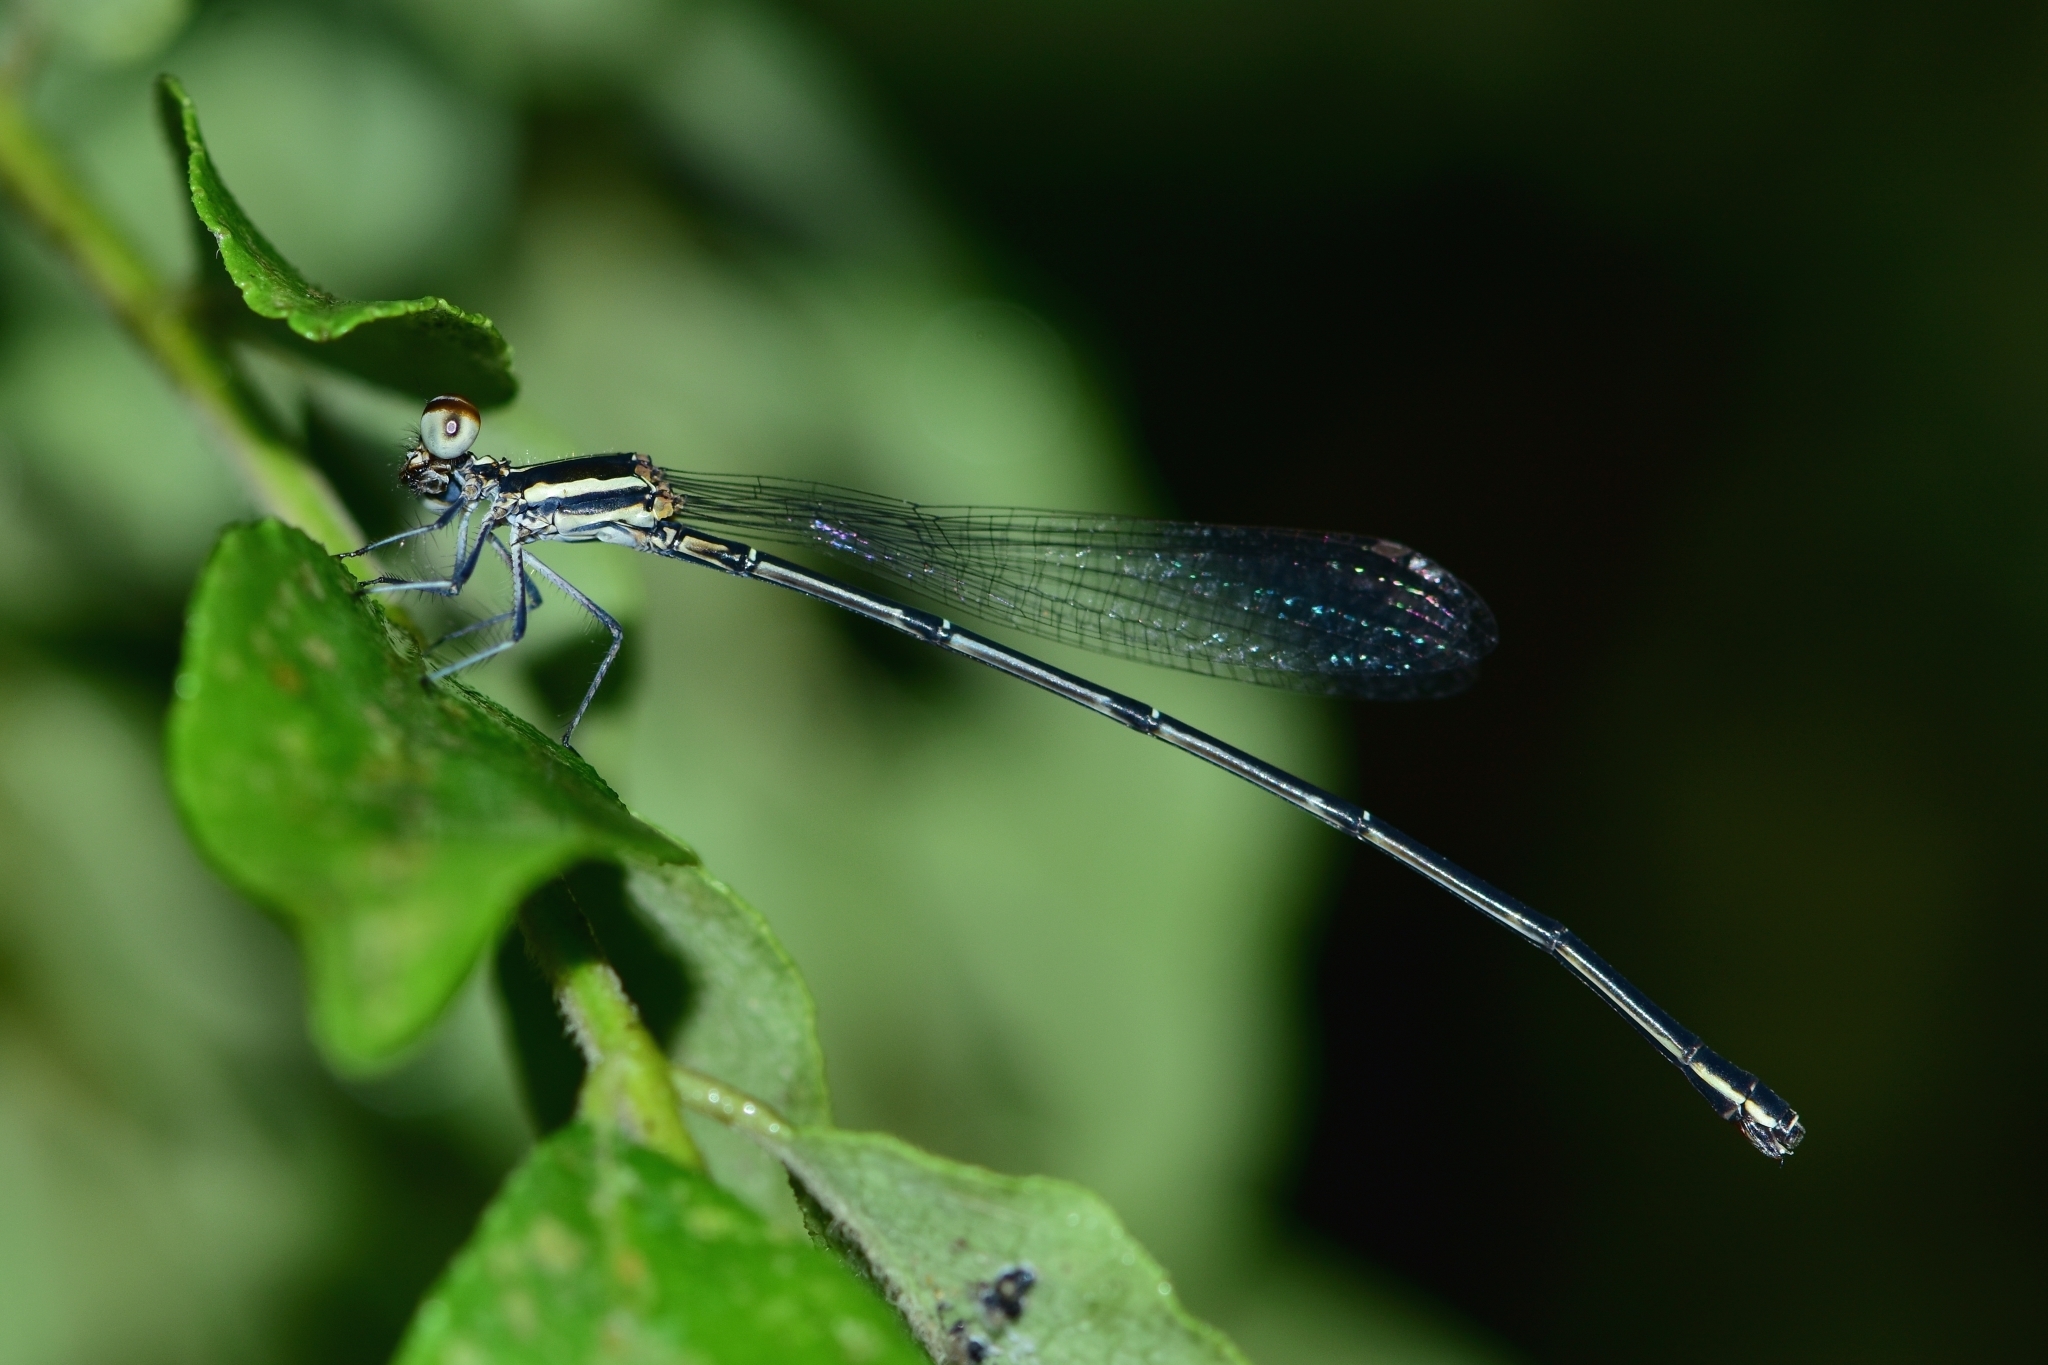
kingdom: Animalia
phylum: Arthropoda
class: Insecta
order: Odonata
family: Platycnemididae
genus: Prodasineura
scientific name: Prodasineura verticalis
